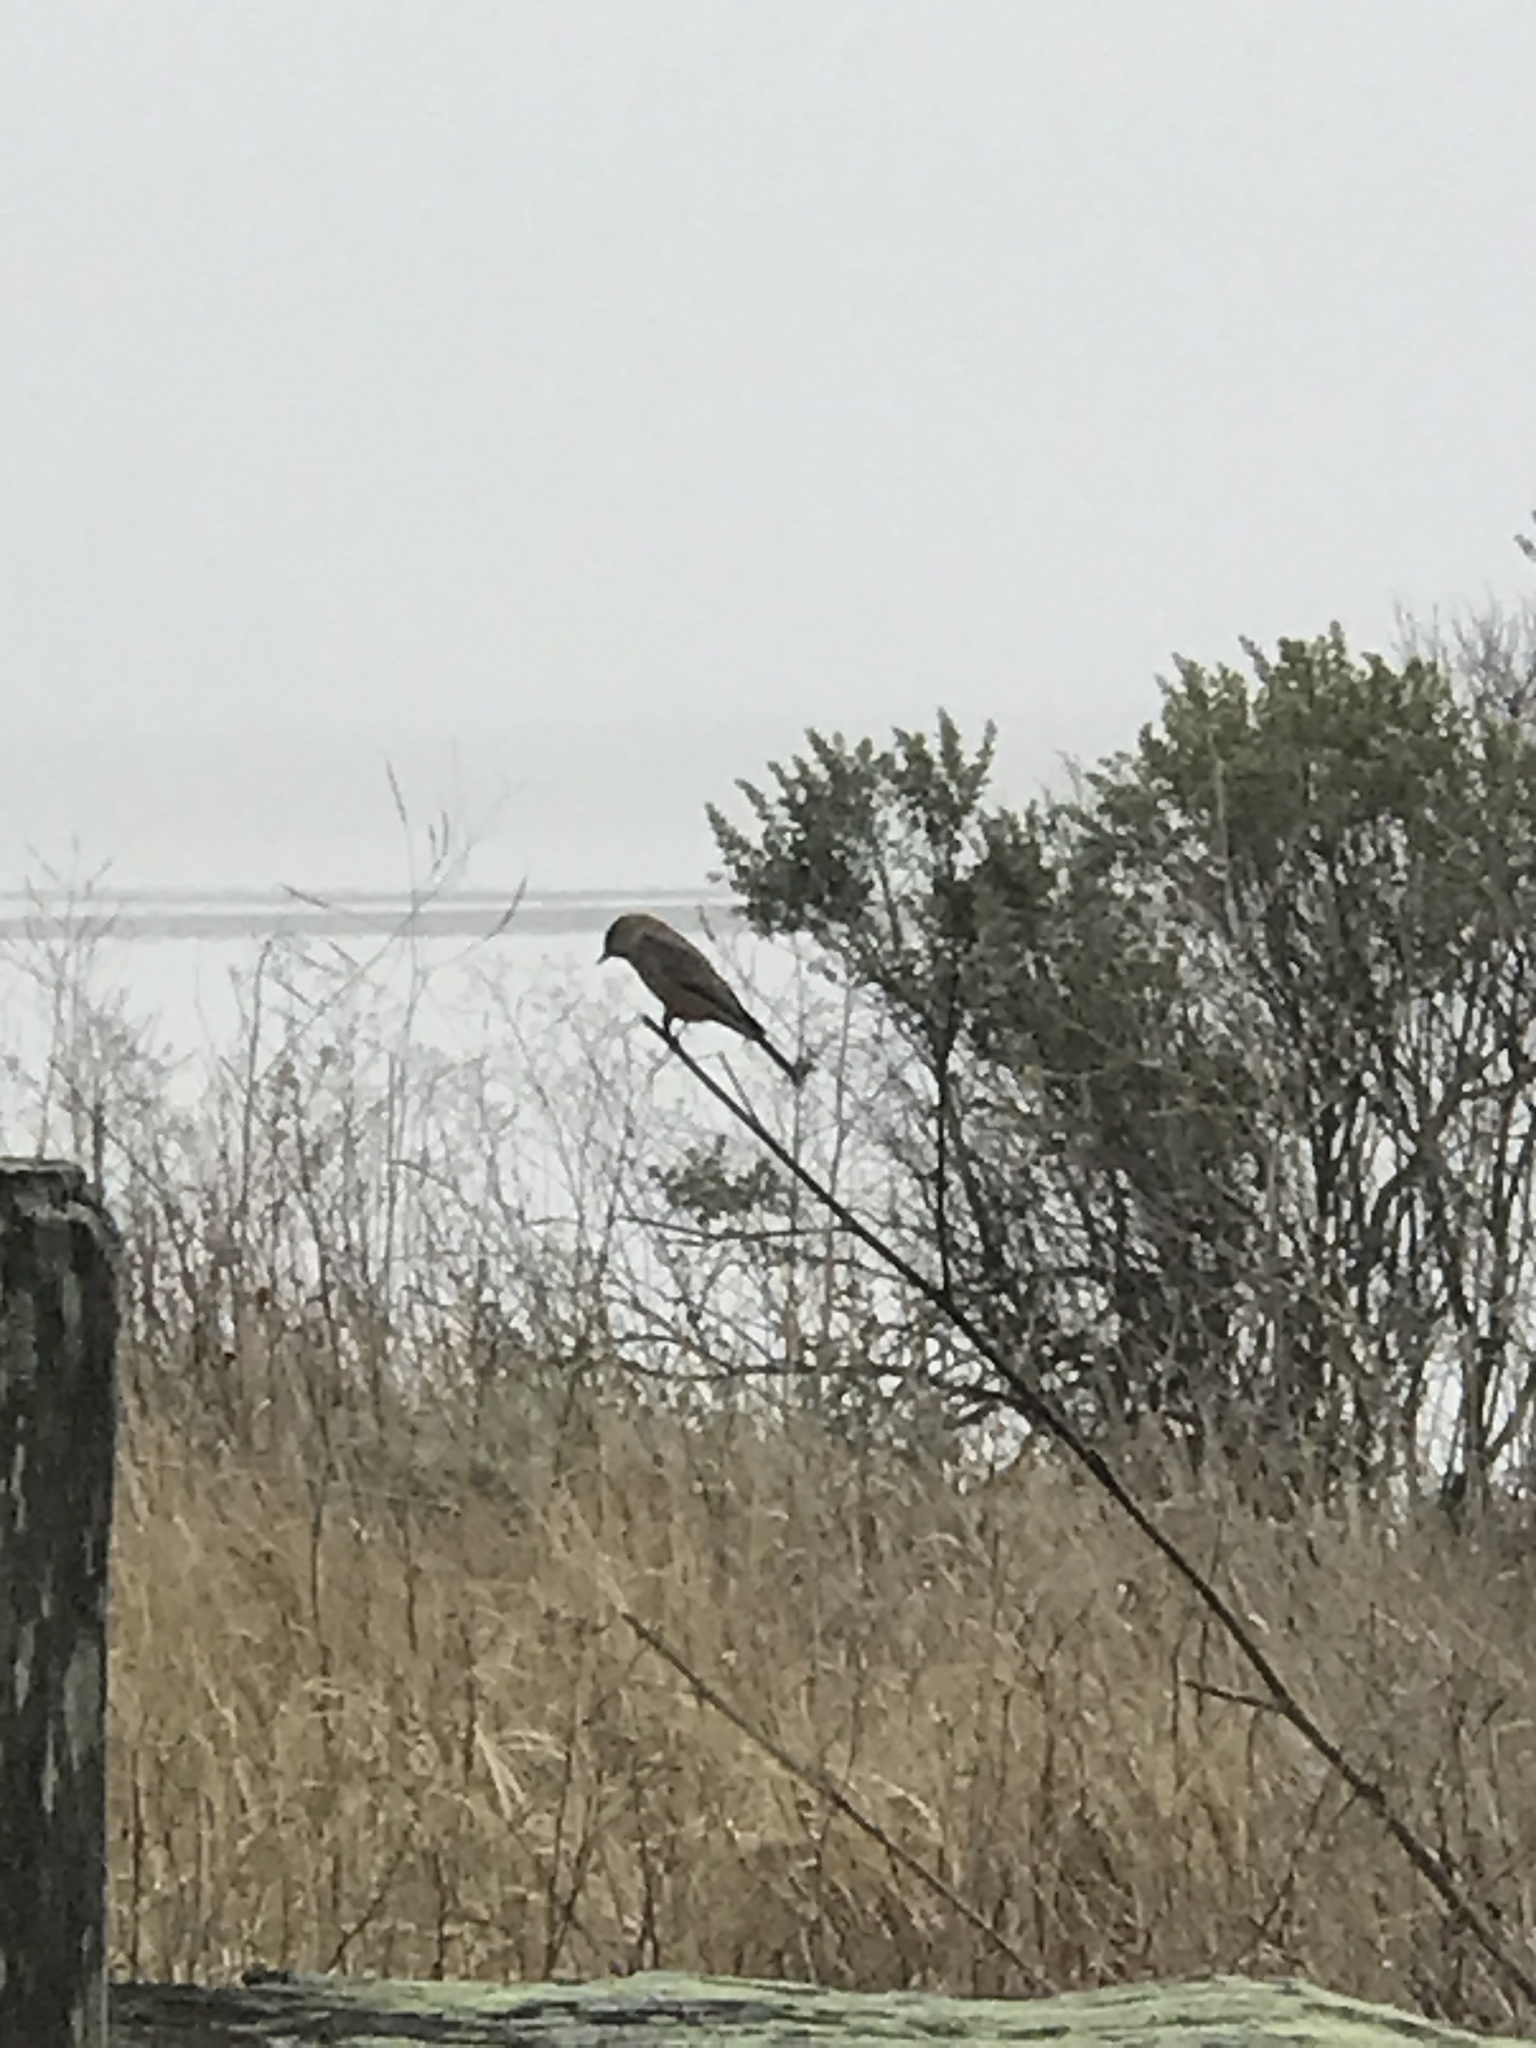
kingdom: Animalia
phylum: Chordata
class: Aves
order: Passeriformes
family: Tyrannidae
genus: Sayornis
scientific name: Sayornis saya
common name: Say's phoebe
